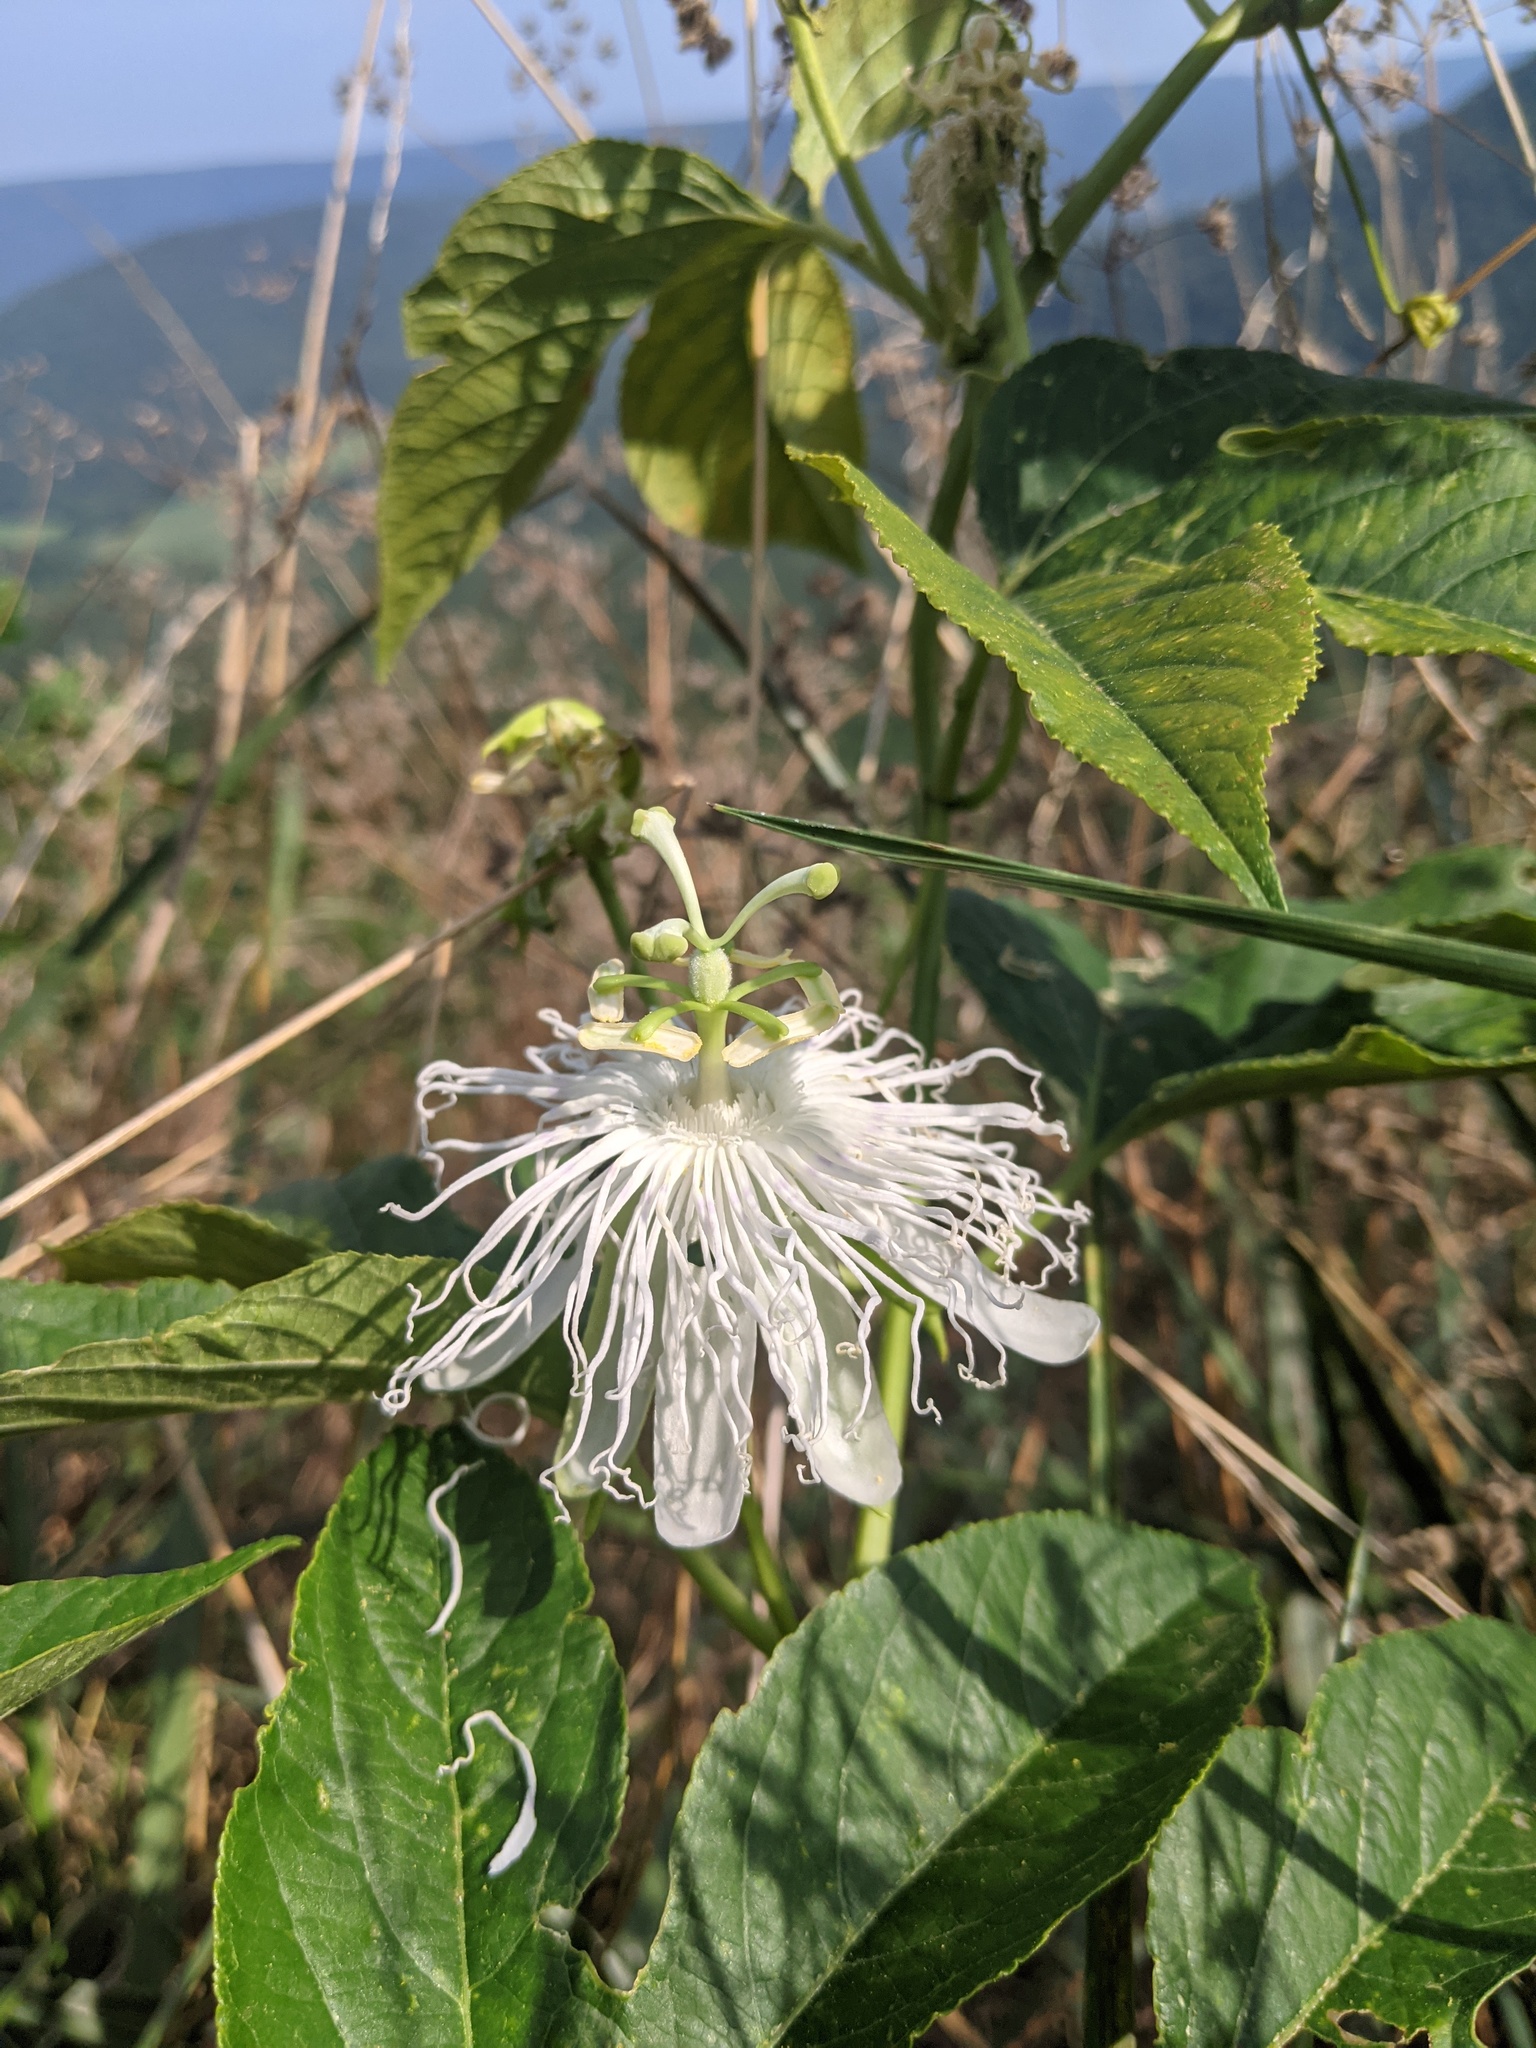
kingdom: Plantae
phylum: Tracheophyta
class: Magnoliopsida
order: Malpighiales
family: Passifloraceae
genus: Passiflora
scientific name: Passiflora incarnata
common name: Apricot-vine
